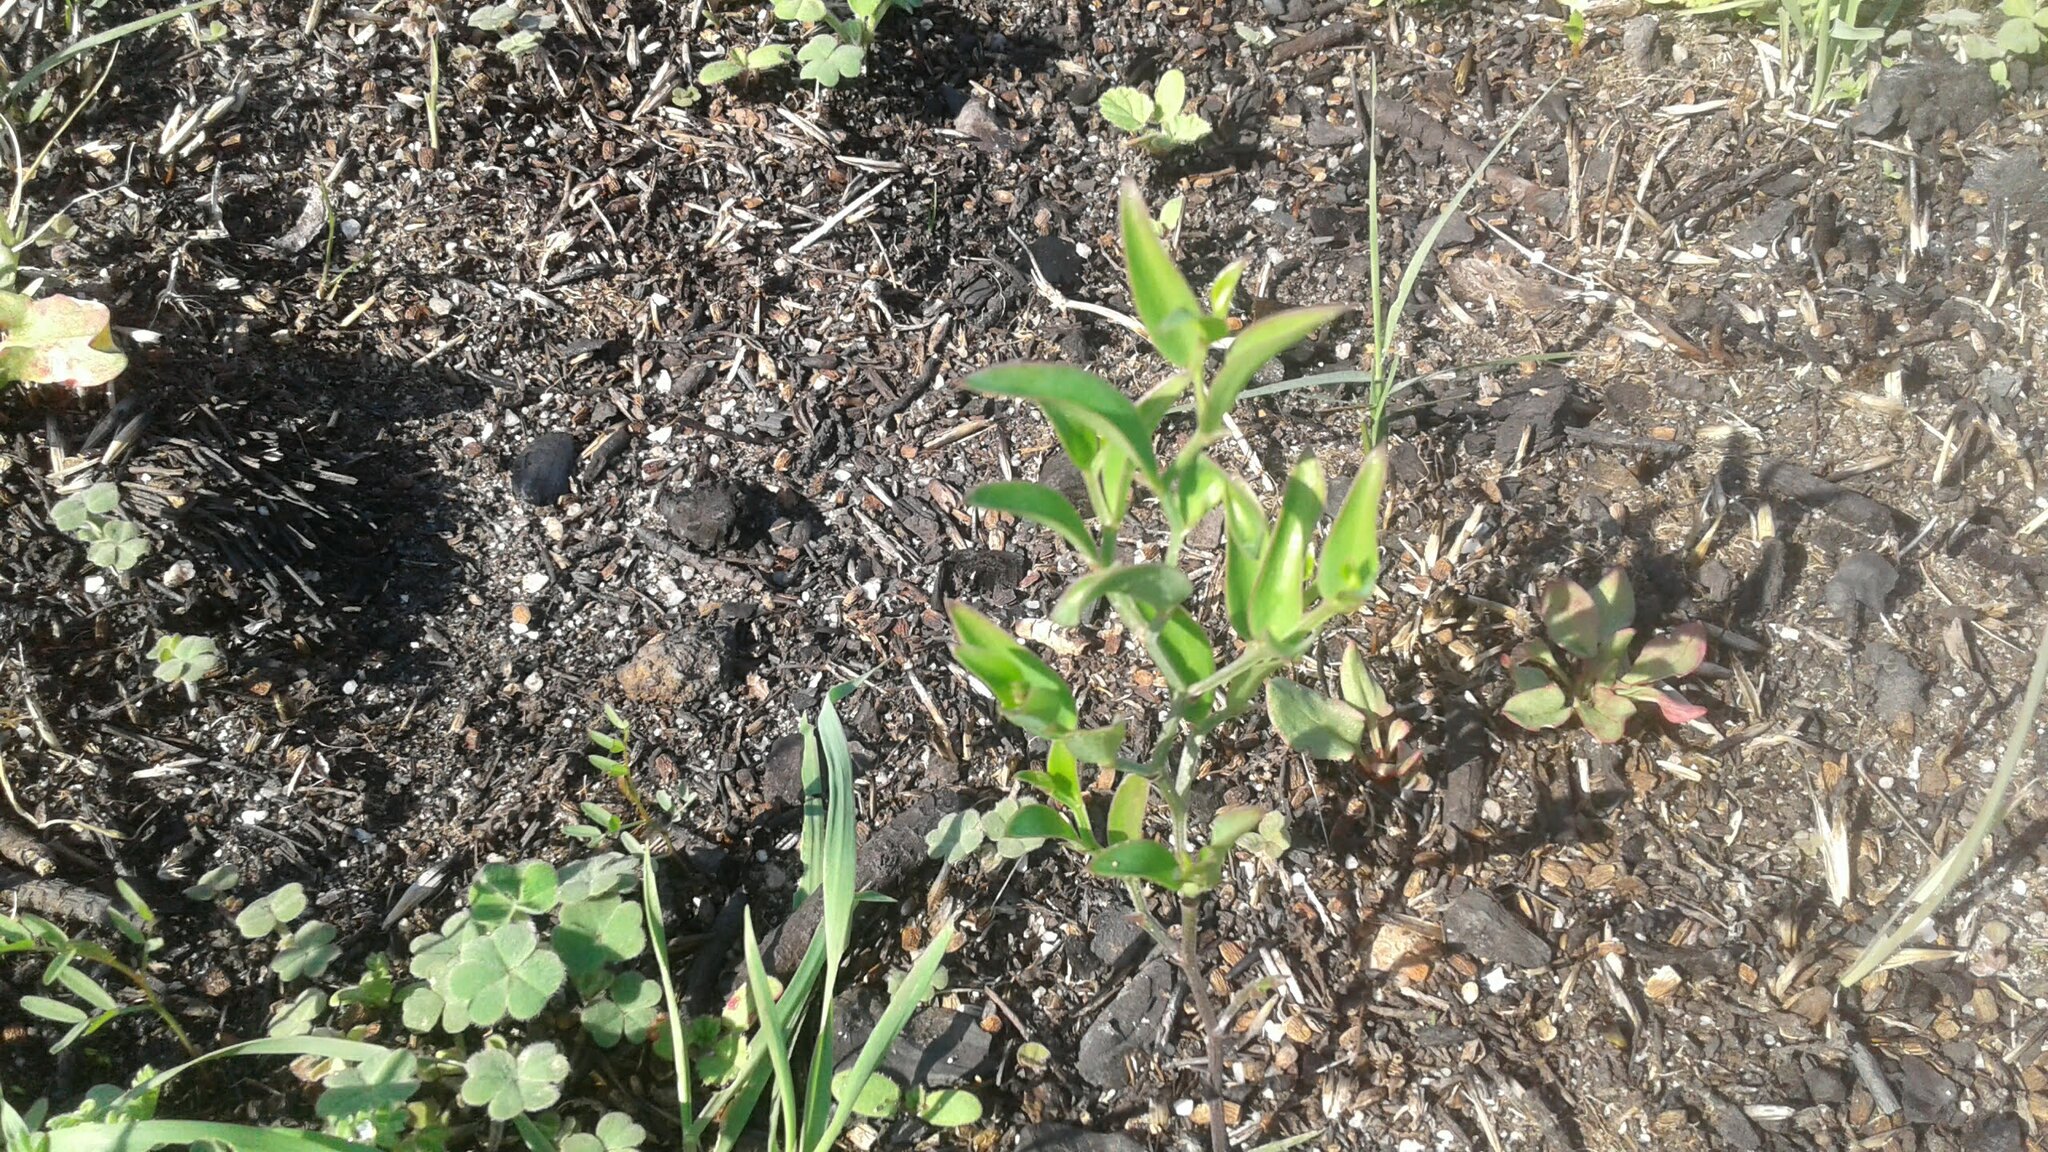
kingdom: Plantae
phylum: Tracheophyta
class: Liliopsida
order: Asparagales
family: Asparagaceae
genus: Asparagus
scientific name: Asparagus asparagoides
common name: African asparagus fern
